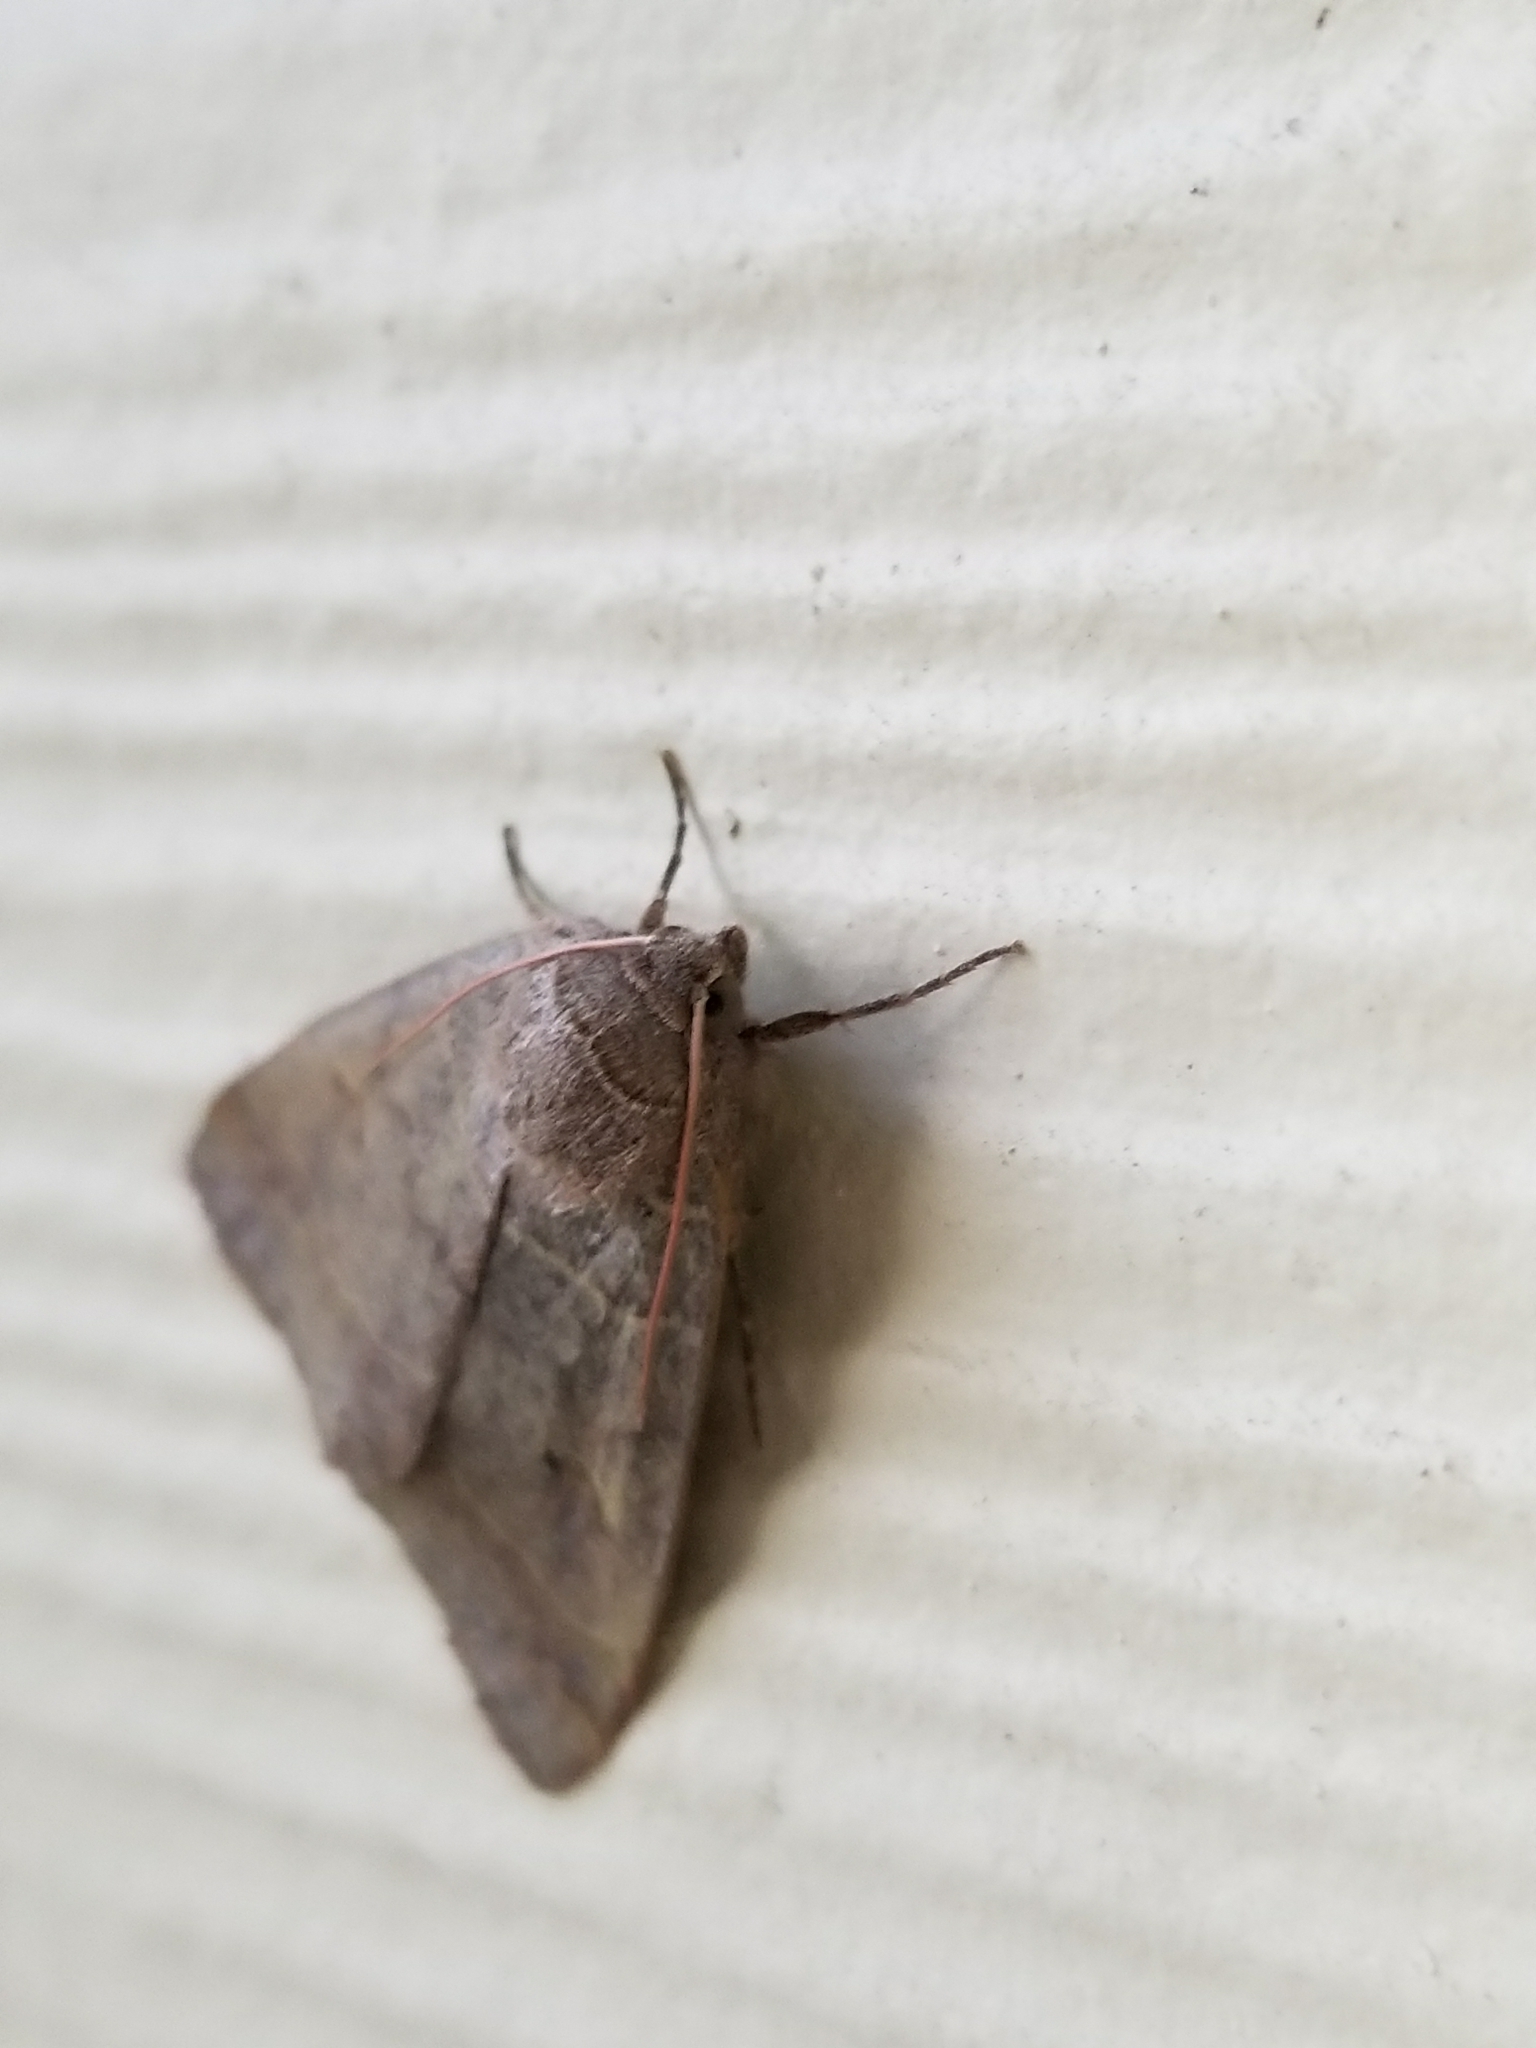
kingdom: Animalia
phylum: Arthropoda
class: Insecta
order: Lepidoptera
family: Erebidae
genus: Phoberia
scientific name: Phoberia atomaris
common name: Common oak moth
